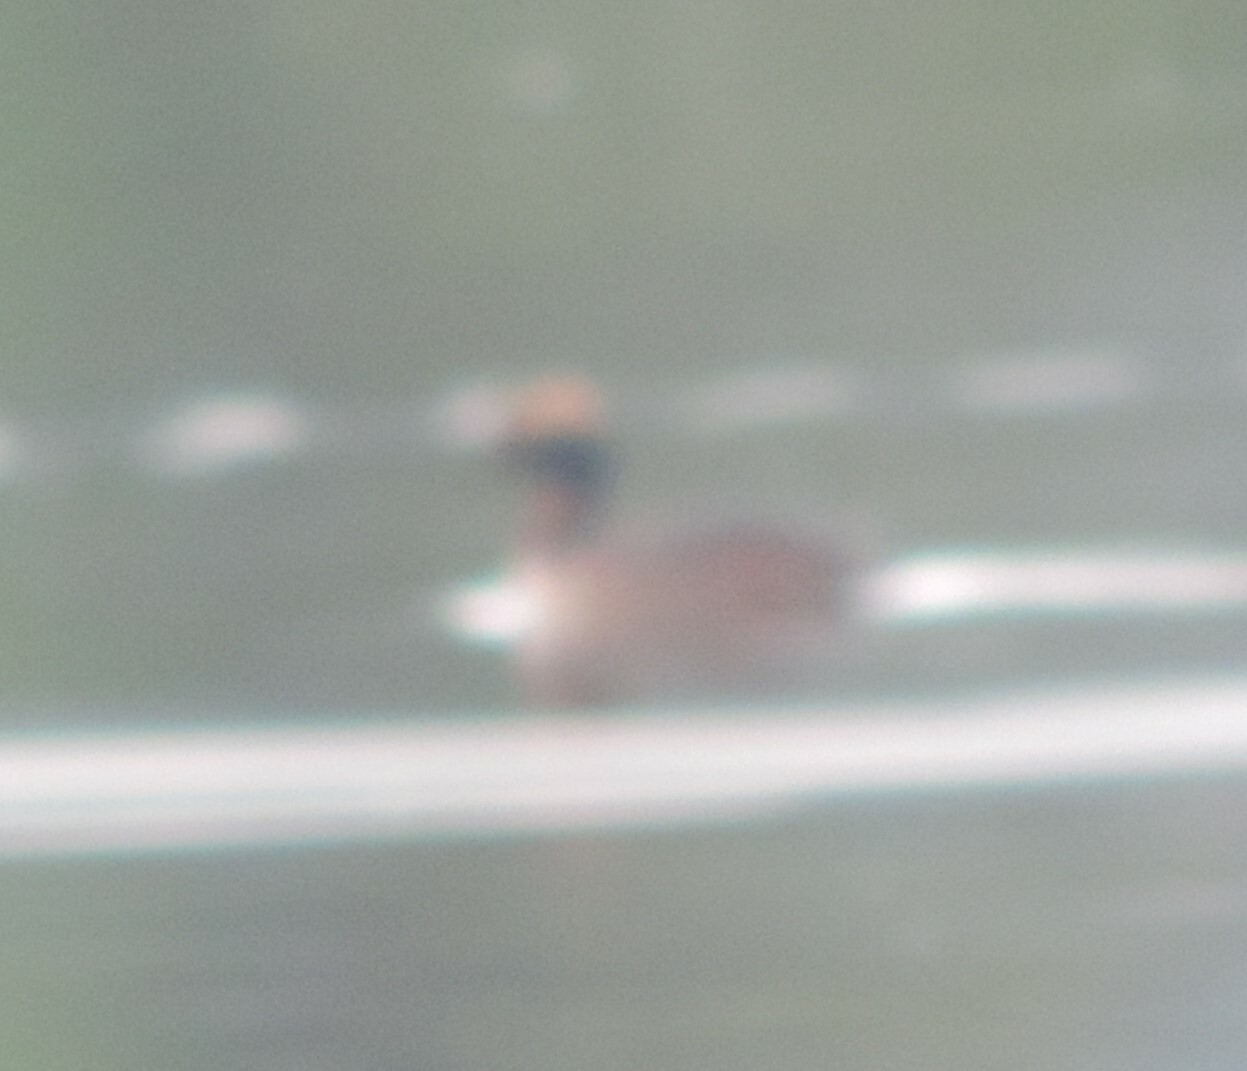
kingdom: Animalia
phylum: Chordata
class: Aves
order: Podicipediformes
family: Podicipedidae
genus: Podiceps
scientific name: Podiceps auritus
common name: Horned grebe
